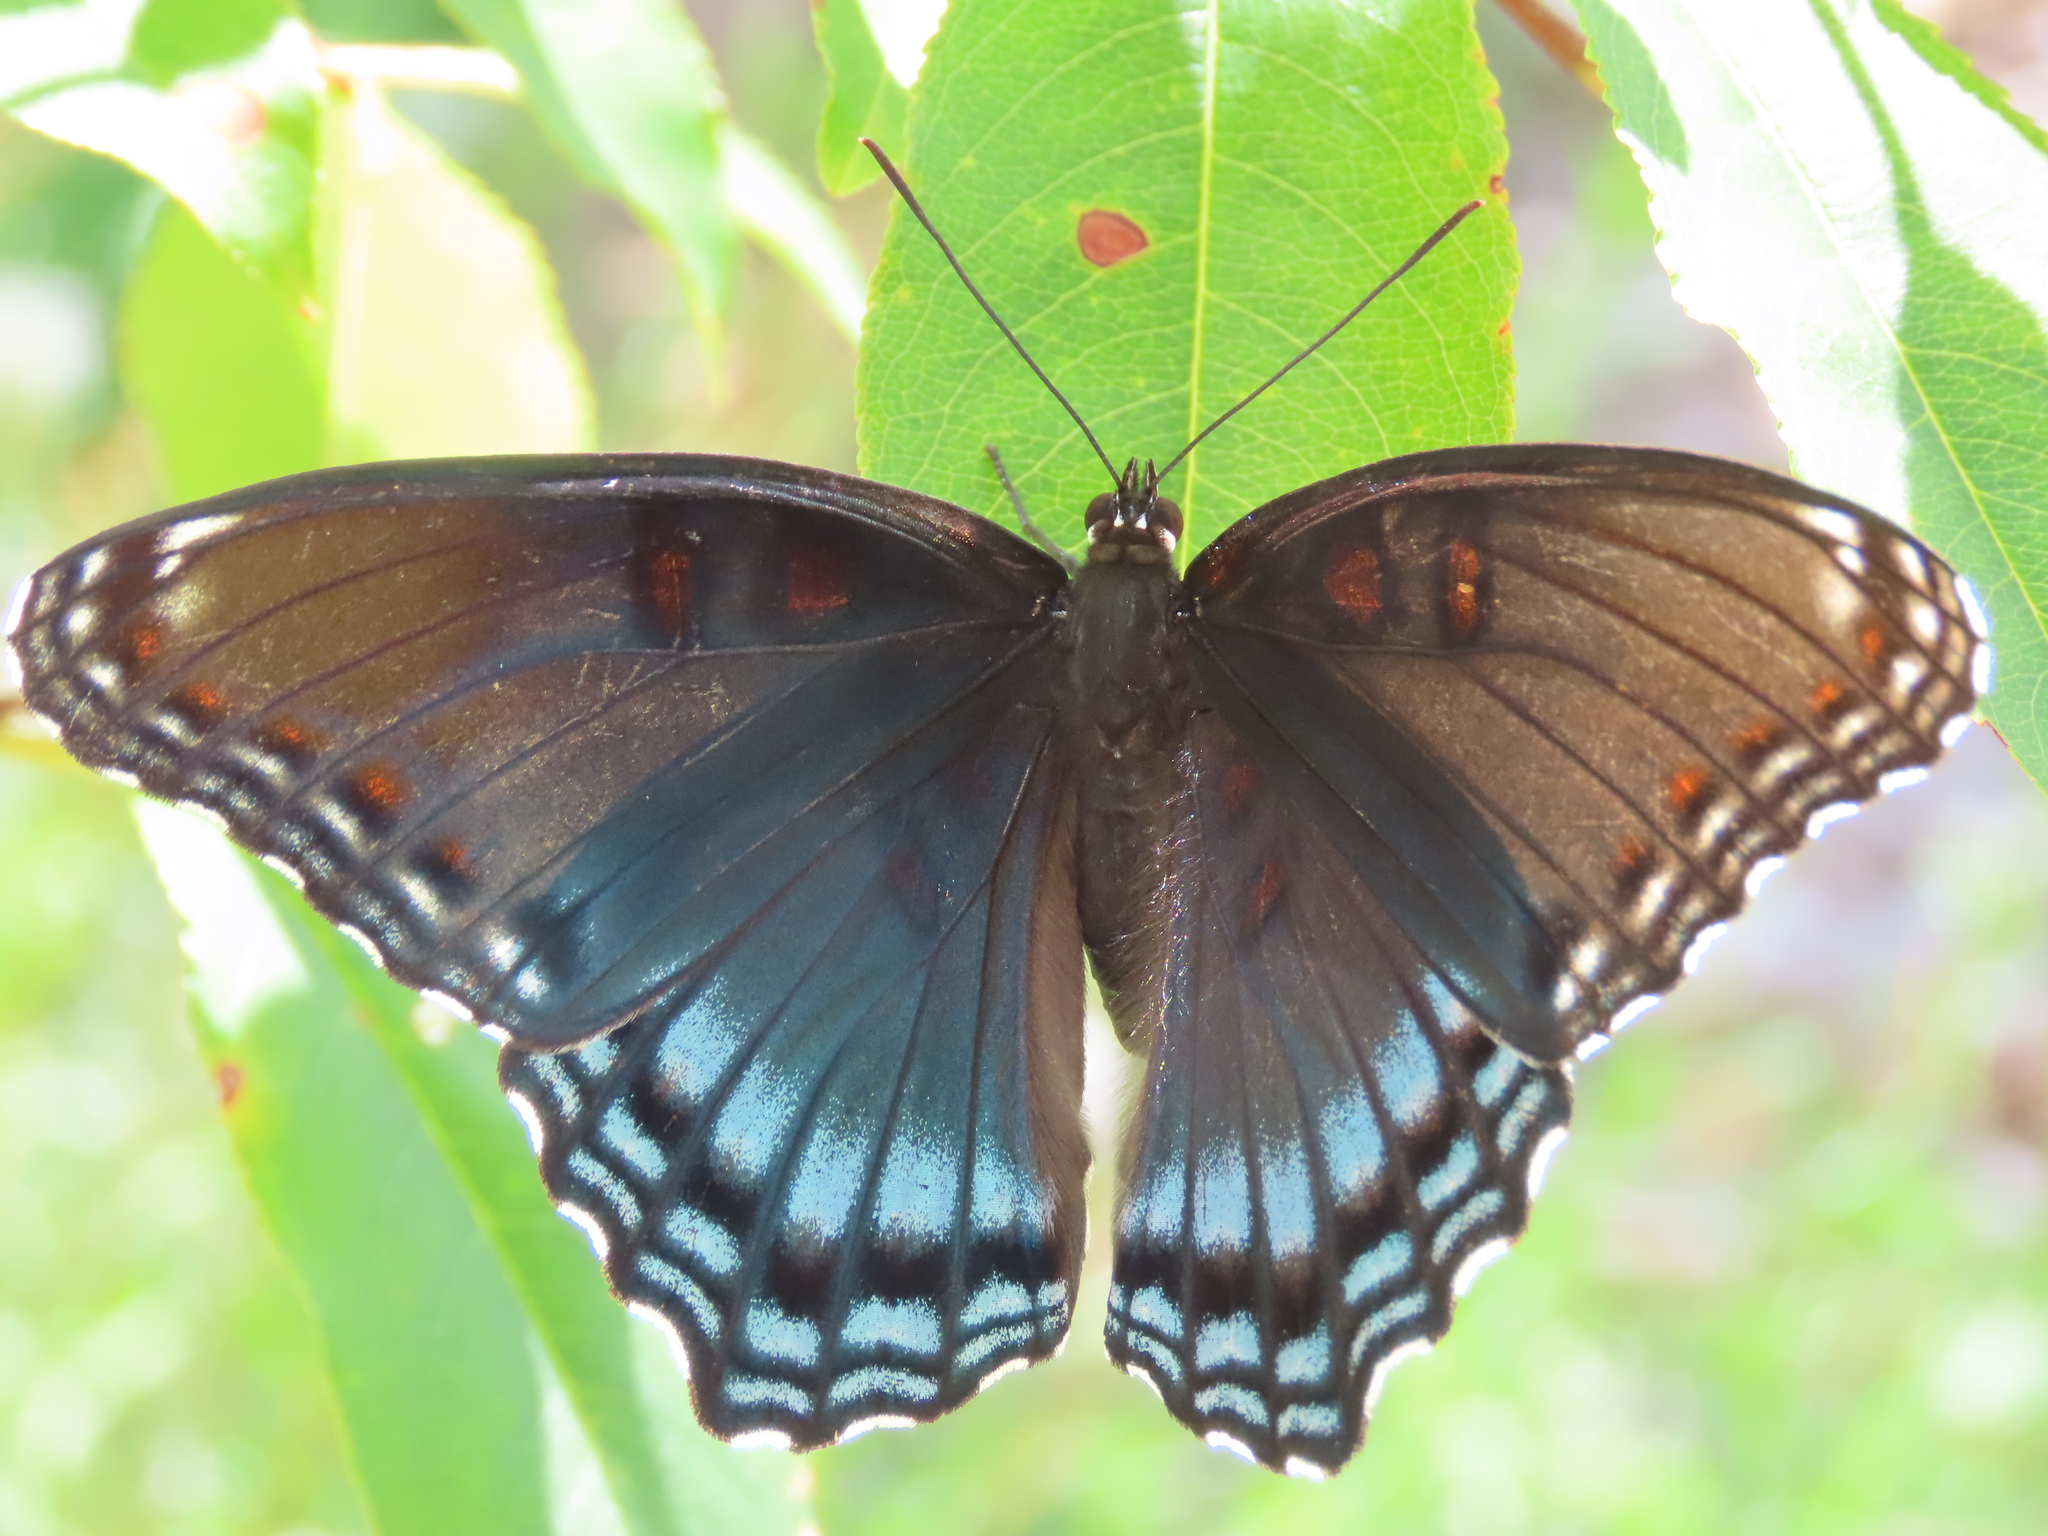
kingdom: Animalia
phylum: Arthropoda
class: Insecta
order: Lepidoptera
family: Nymphalidae
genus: Limenitis
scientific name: Limenitis arthemis
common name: Red-spotted admiral
